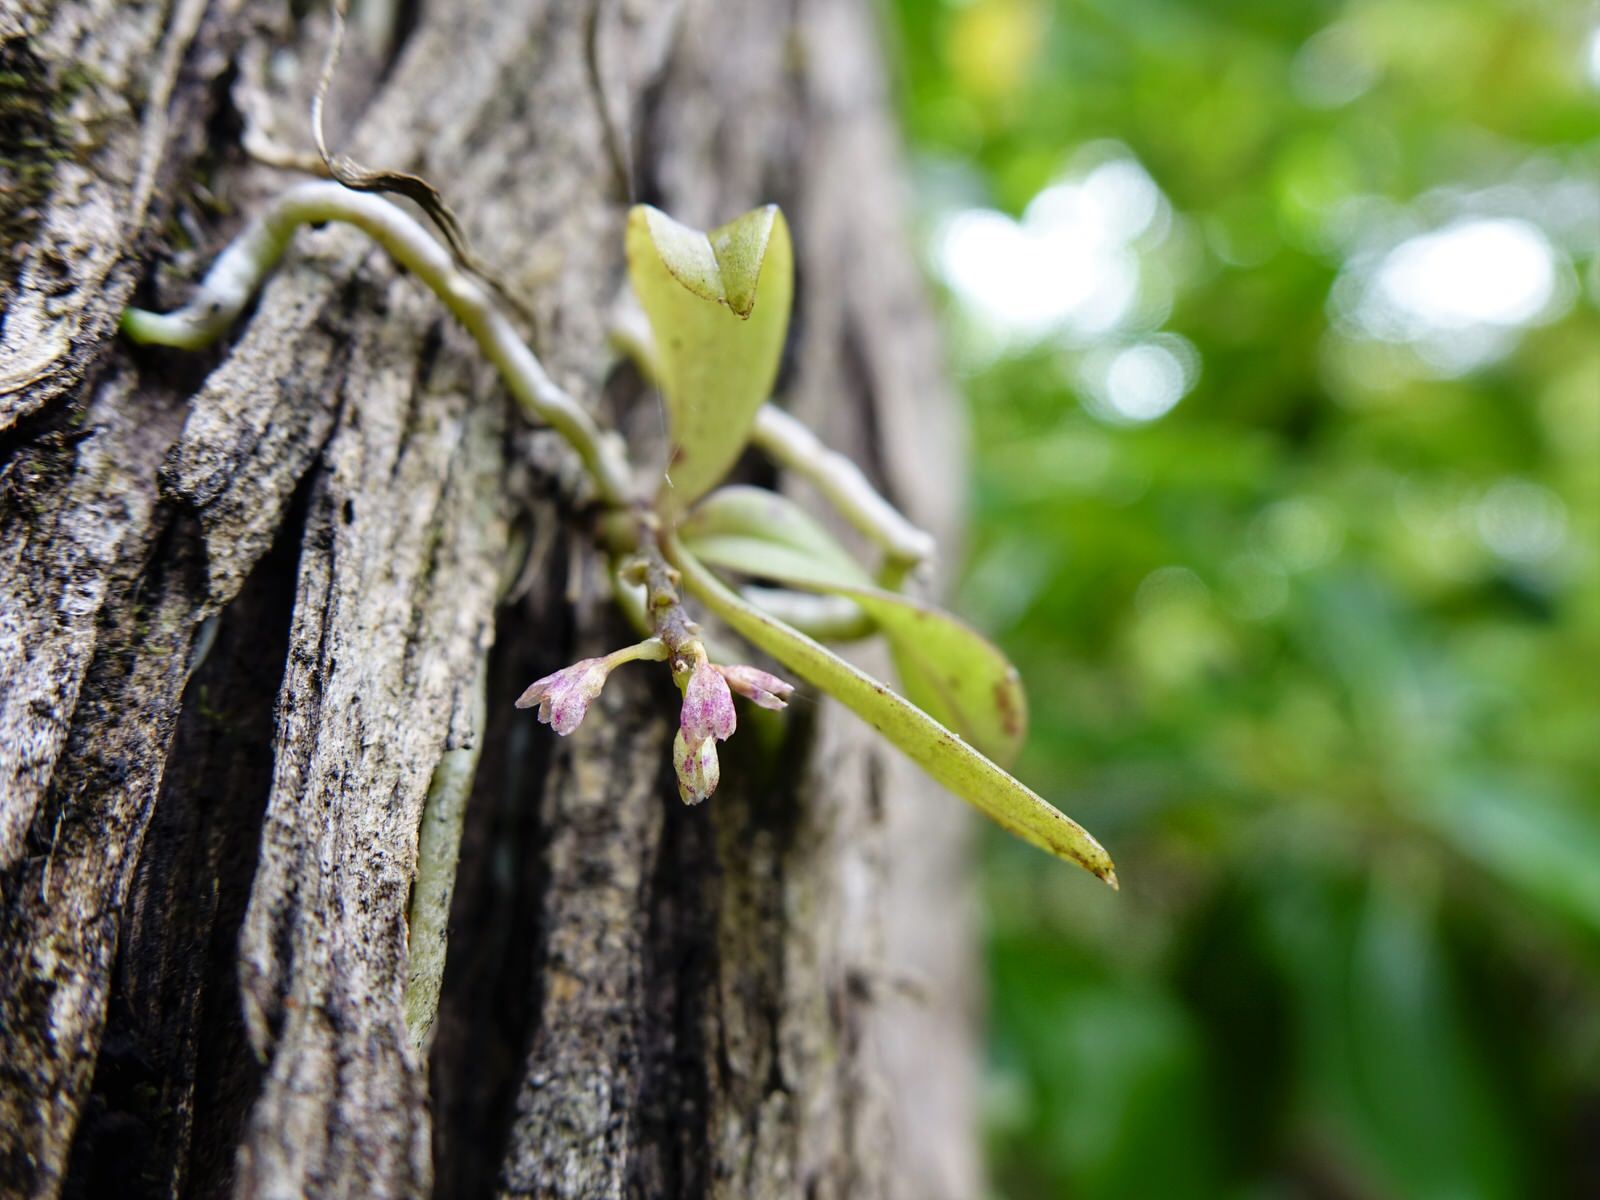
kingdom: Plantae
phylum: Tracheophyta
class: Liliopsida
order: Asparagales
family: Orchidaceae
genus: Drymoanthus
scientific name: Drymoanthus adversus
